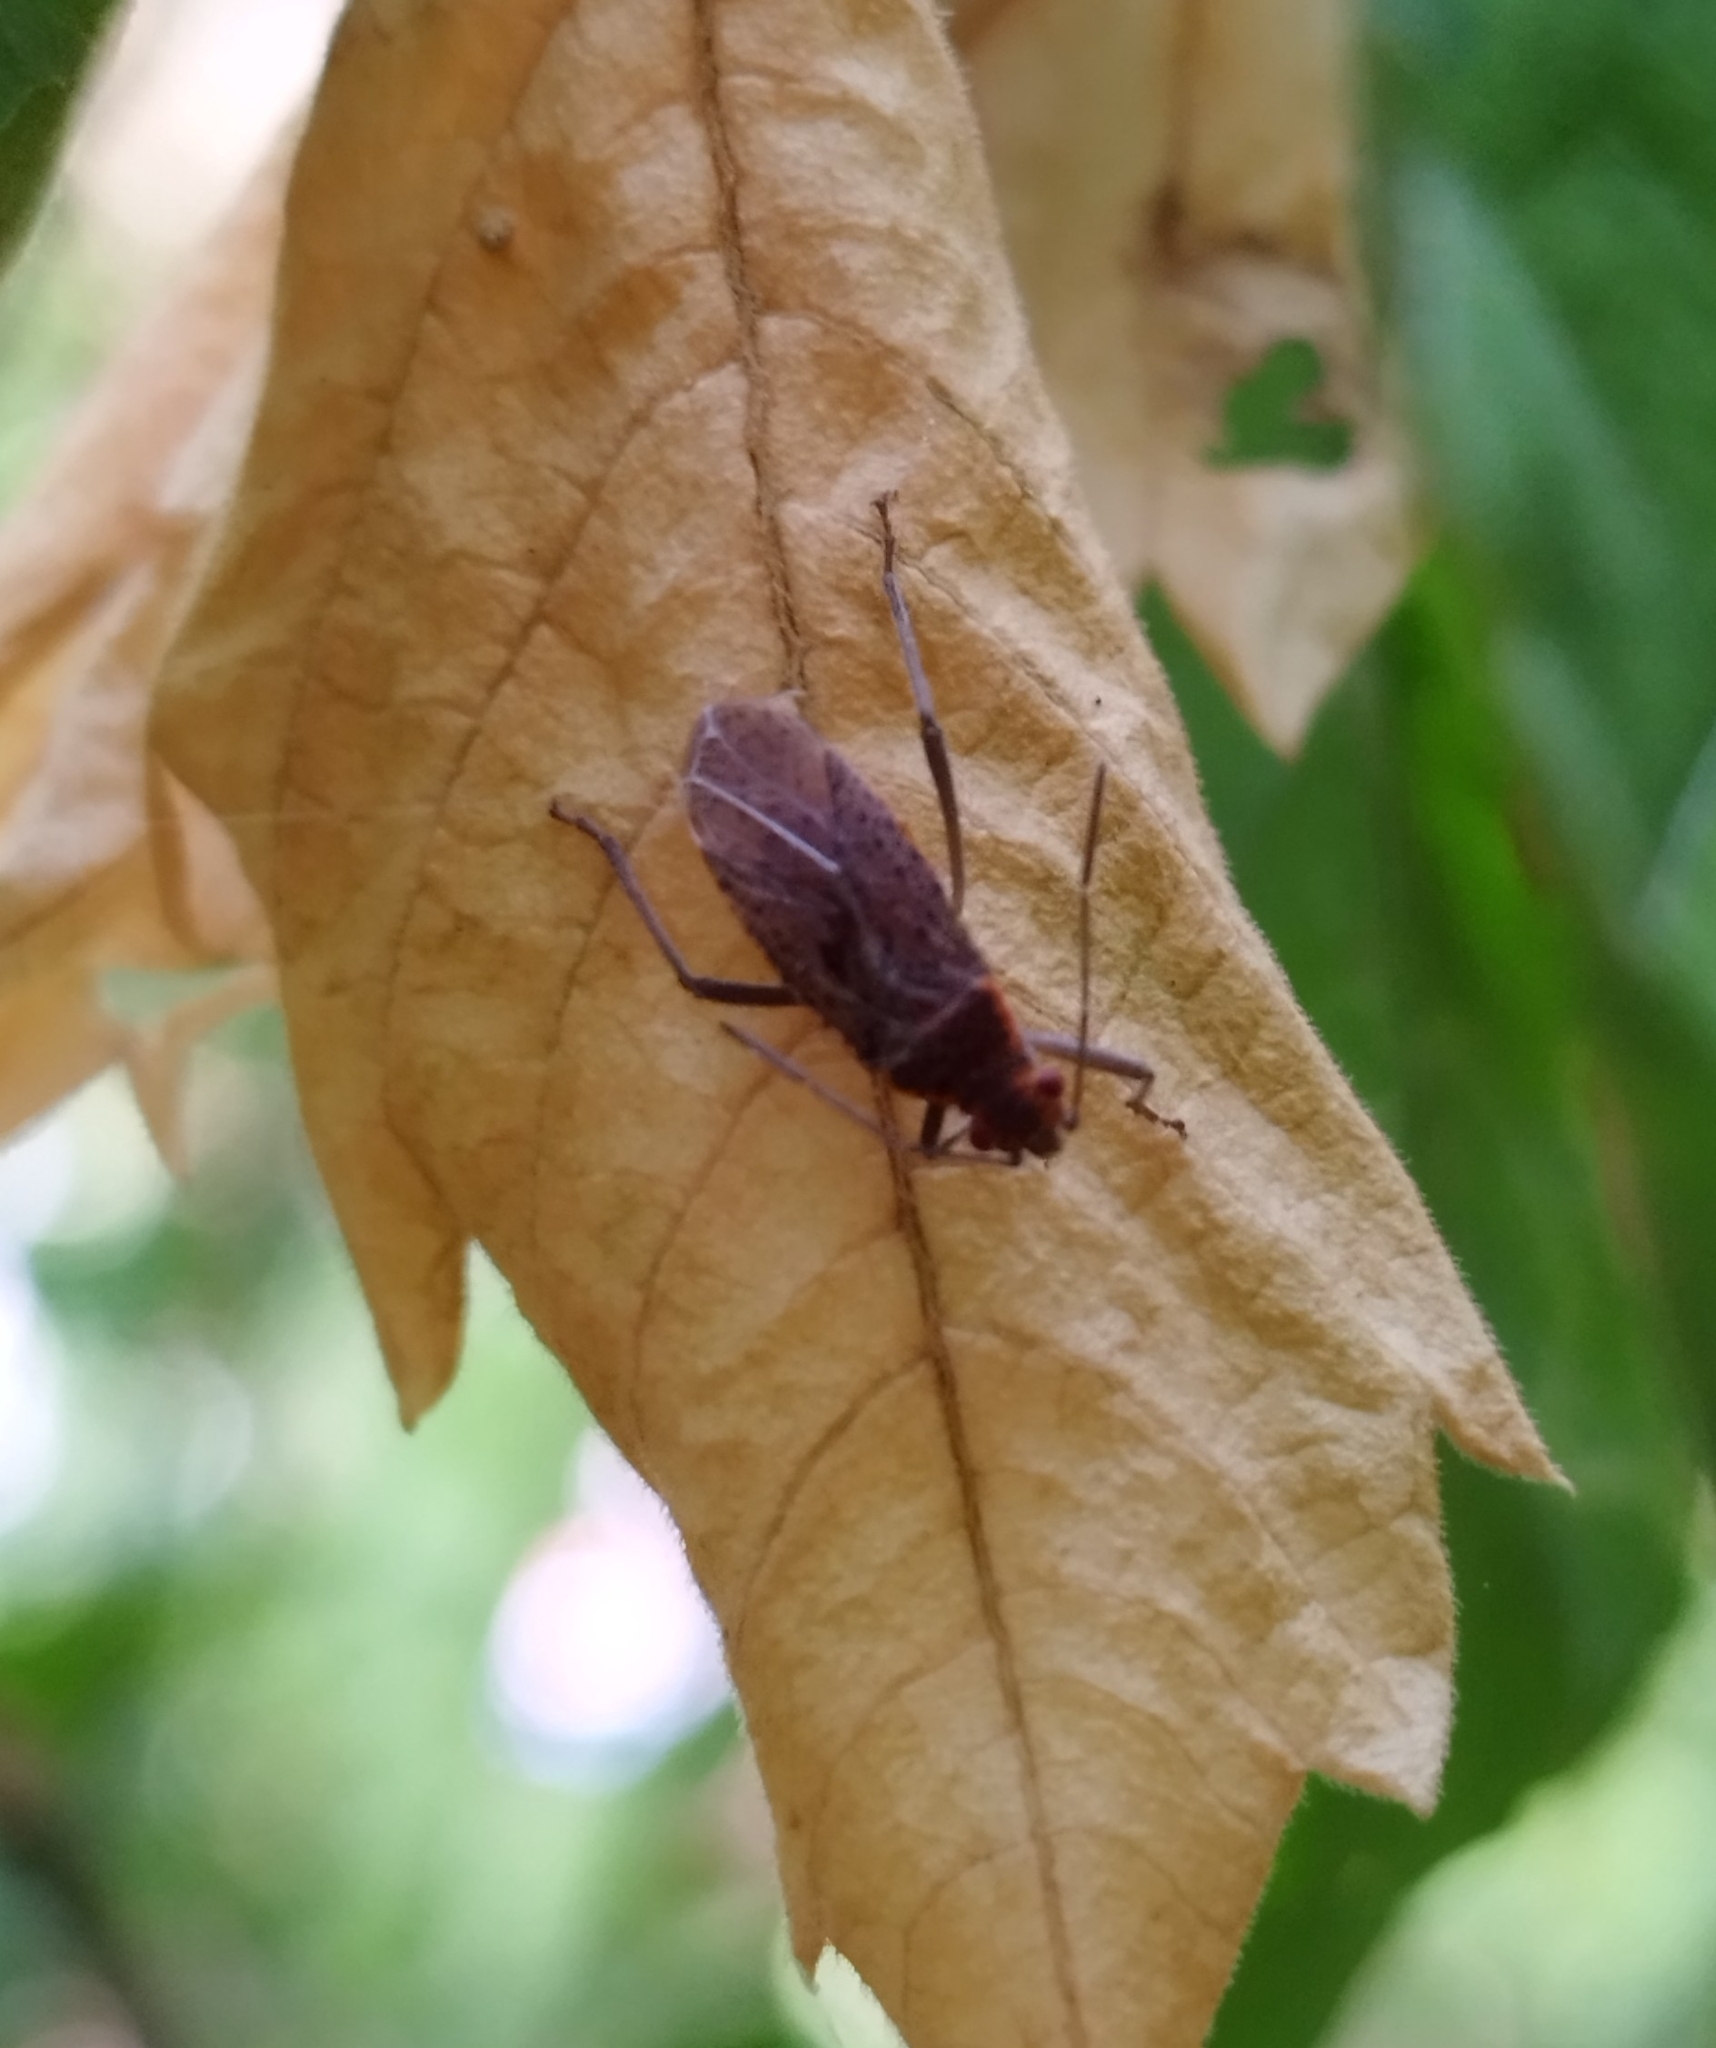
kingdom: Animalia
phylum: Arthropoda
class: Insecta
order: Hemiptera
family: Rhopalidae
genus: Jadera
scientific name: Jadera coturnix
